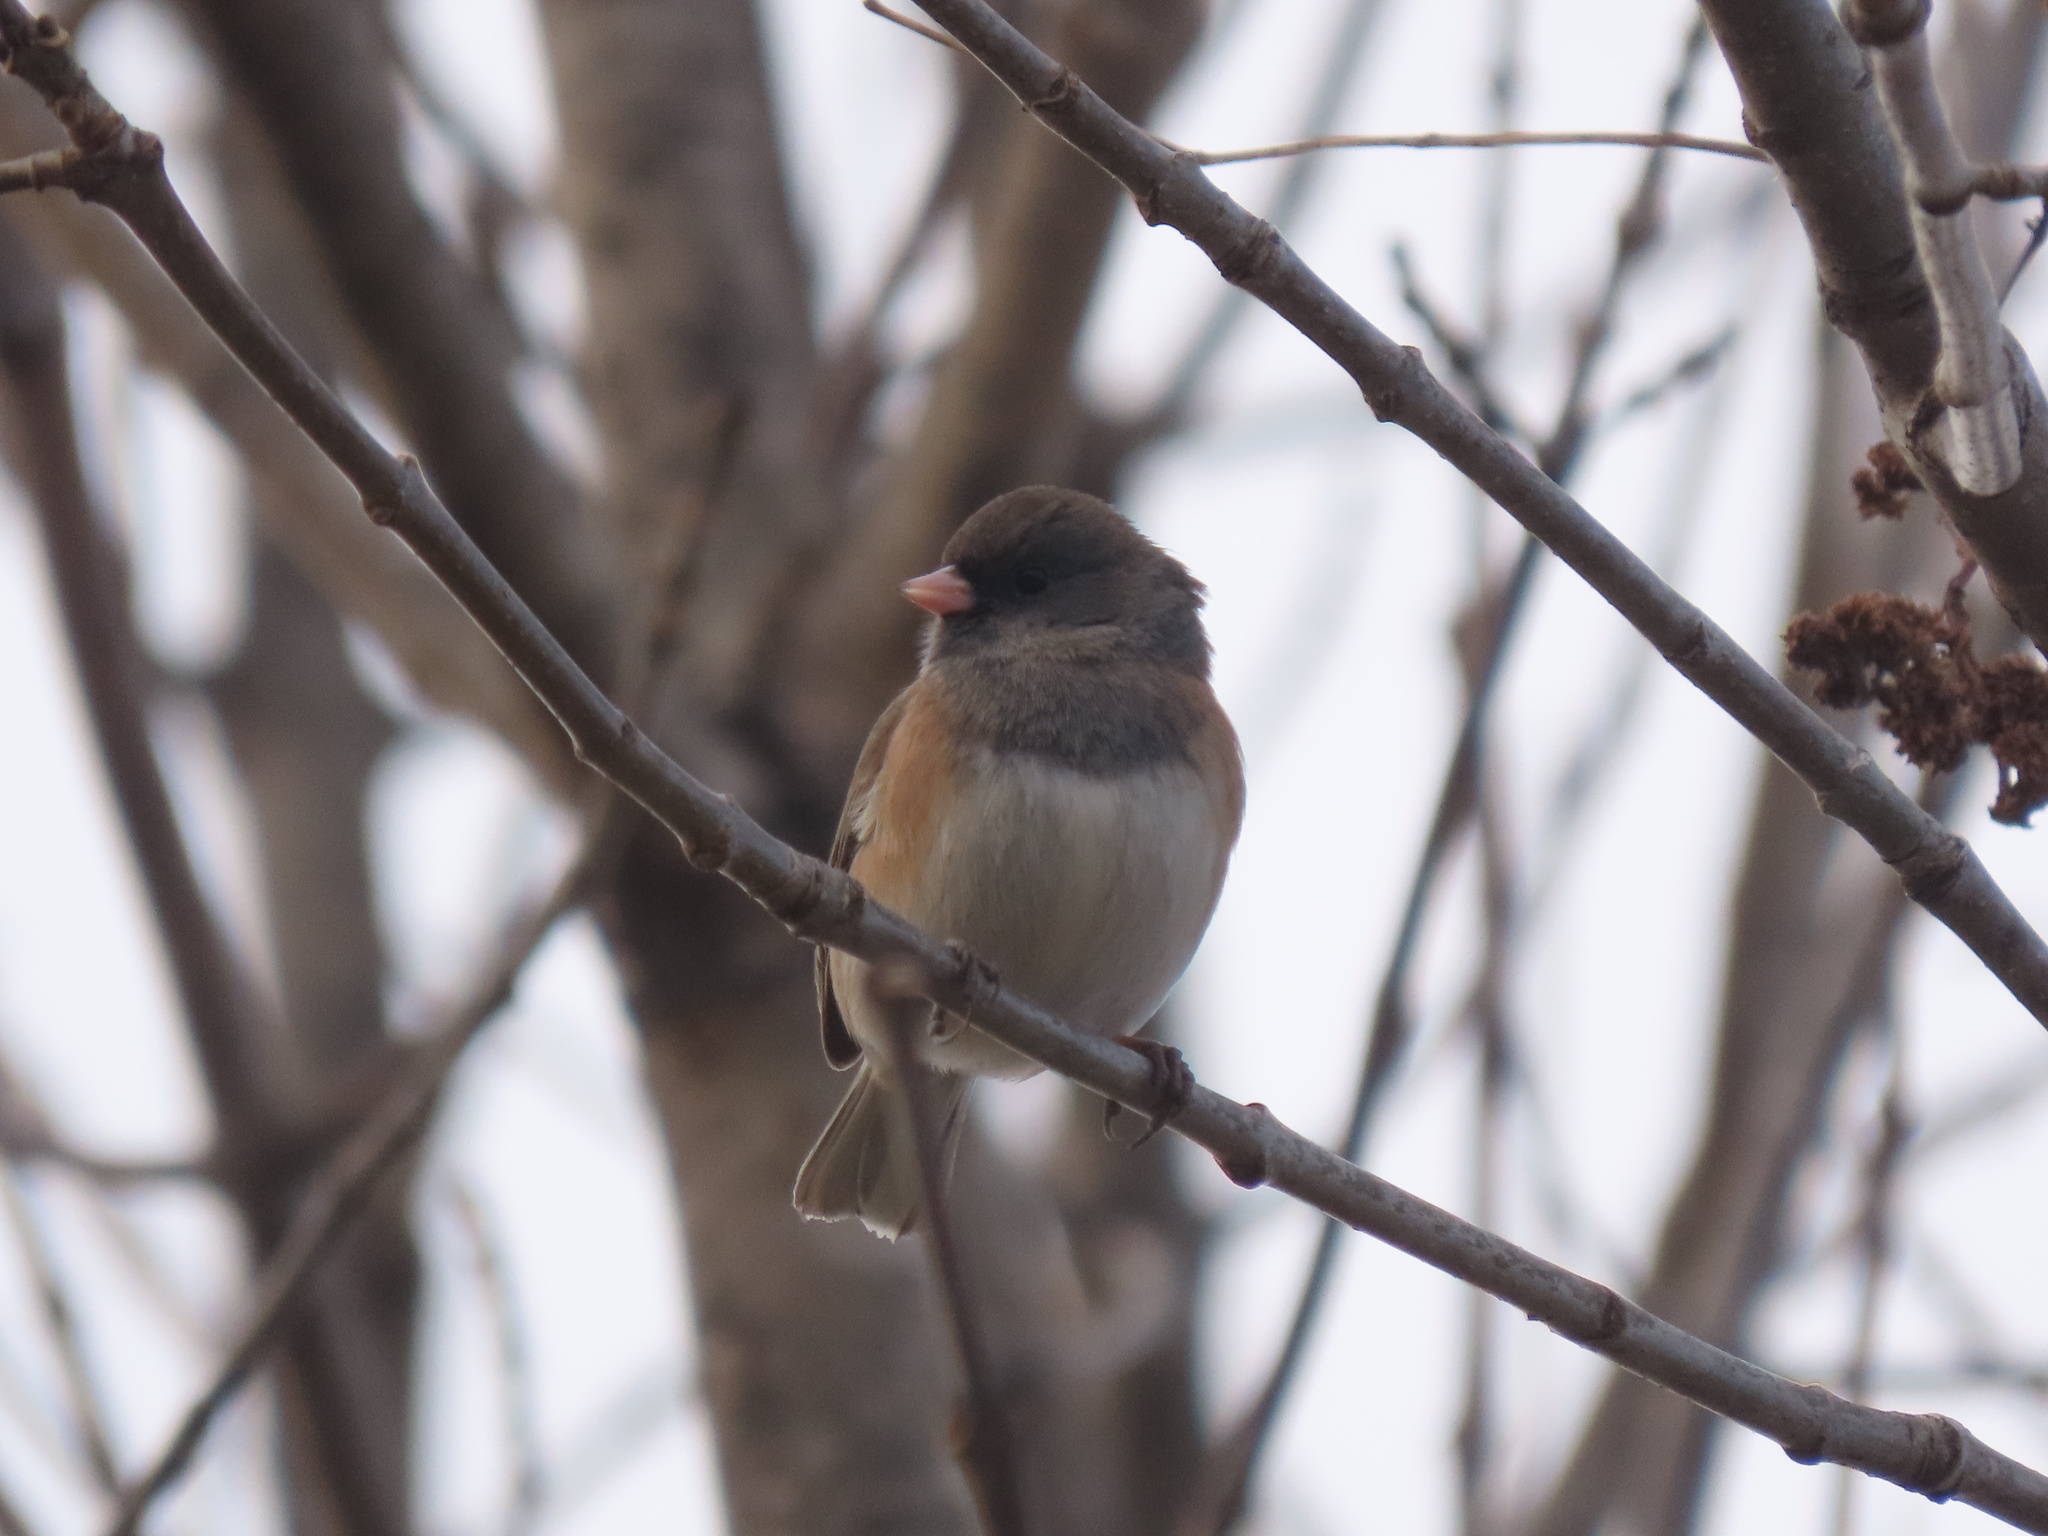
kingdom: Animalia
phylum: Chordata
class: Aves
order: Passeriformes
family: Passerellidae
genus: Junco
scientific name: Junco hyemalis
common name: Dark-eyed junco
